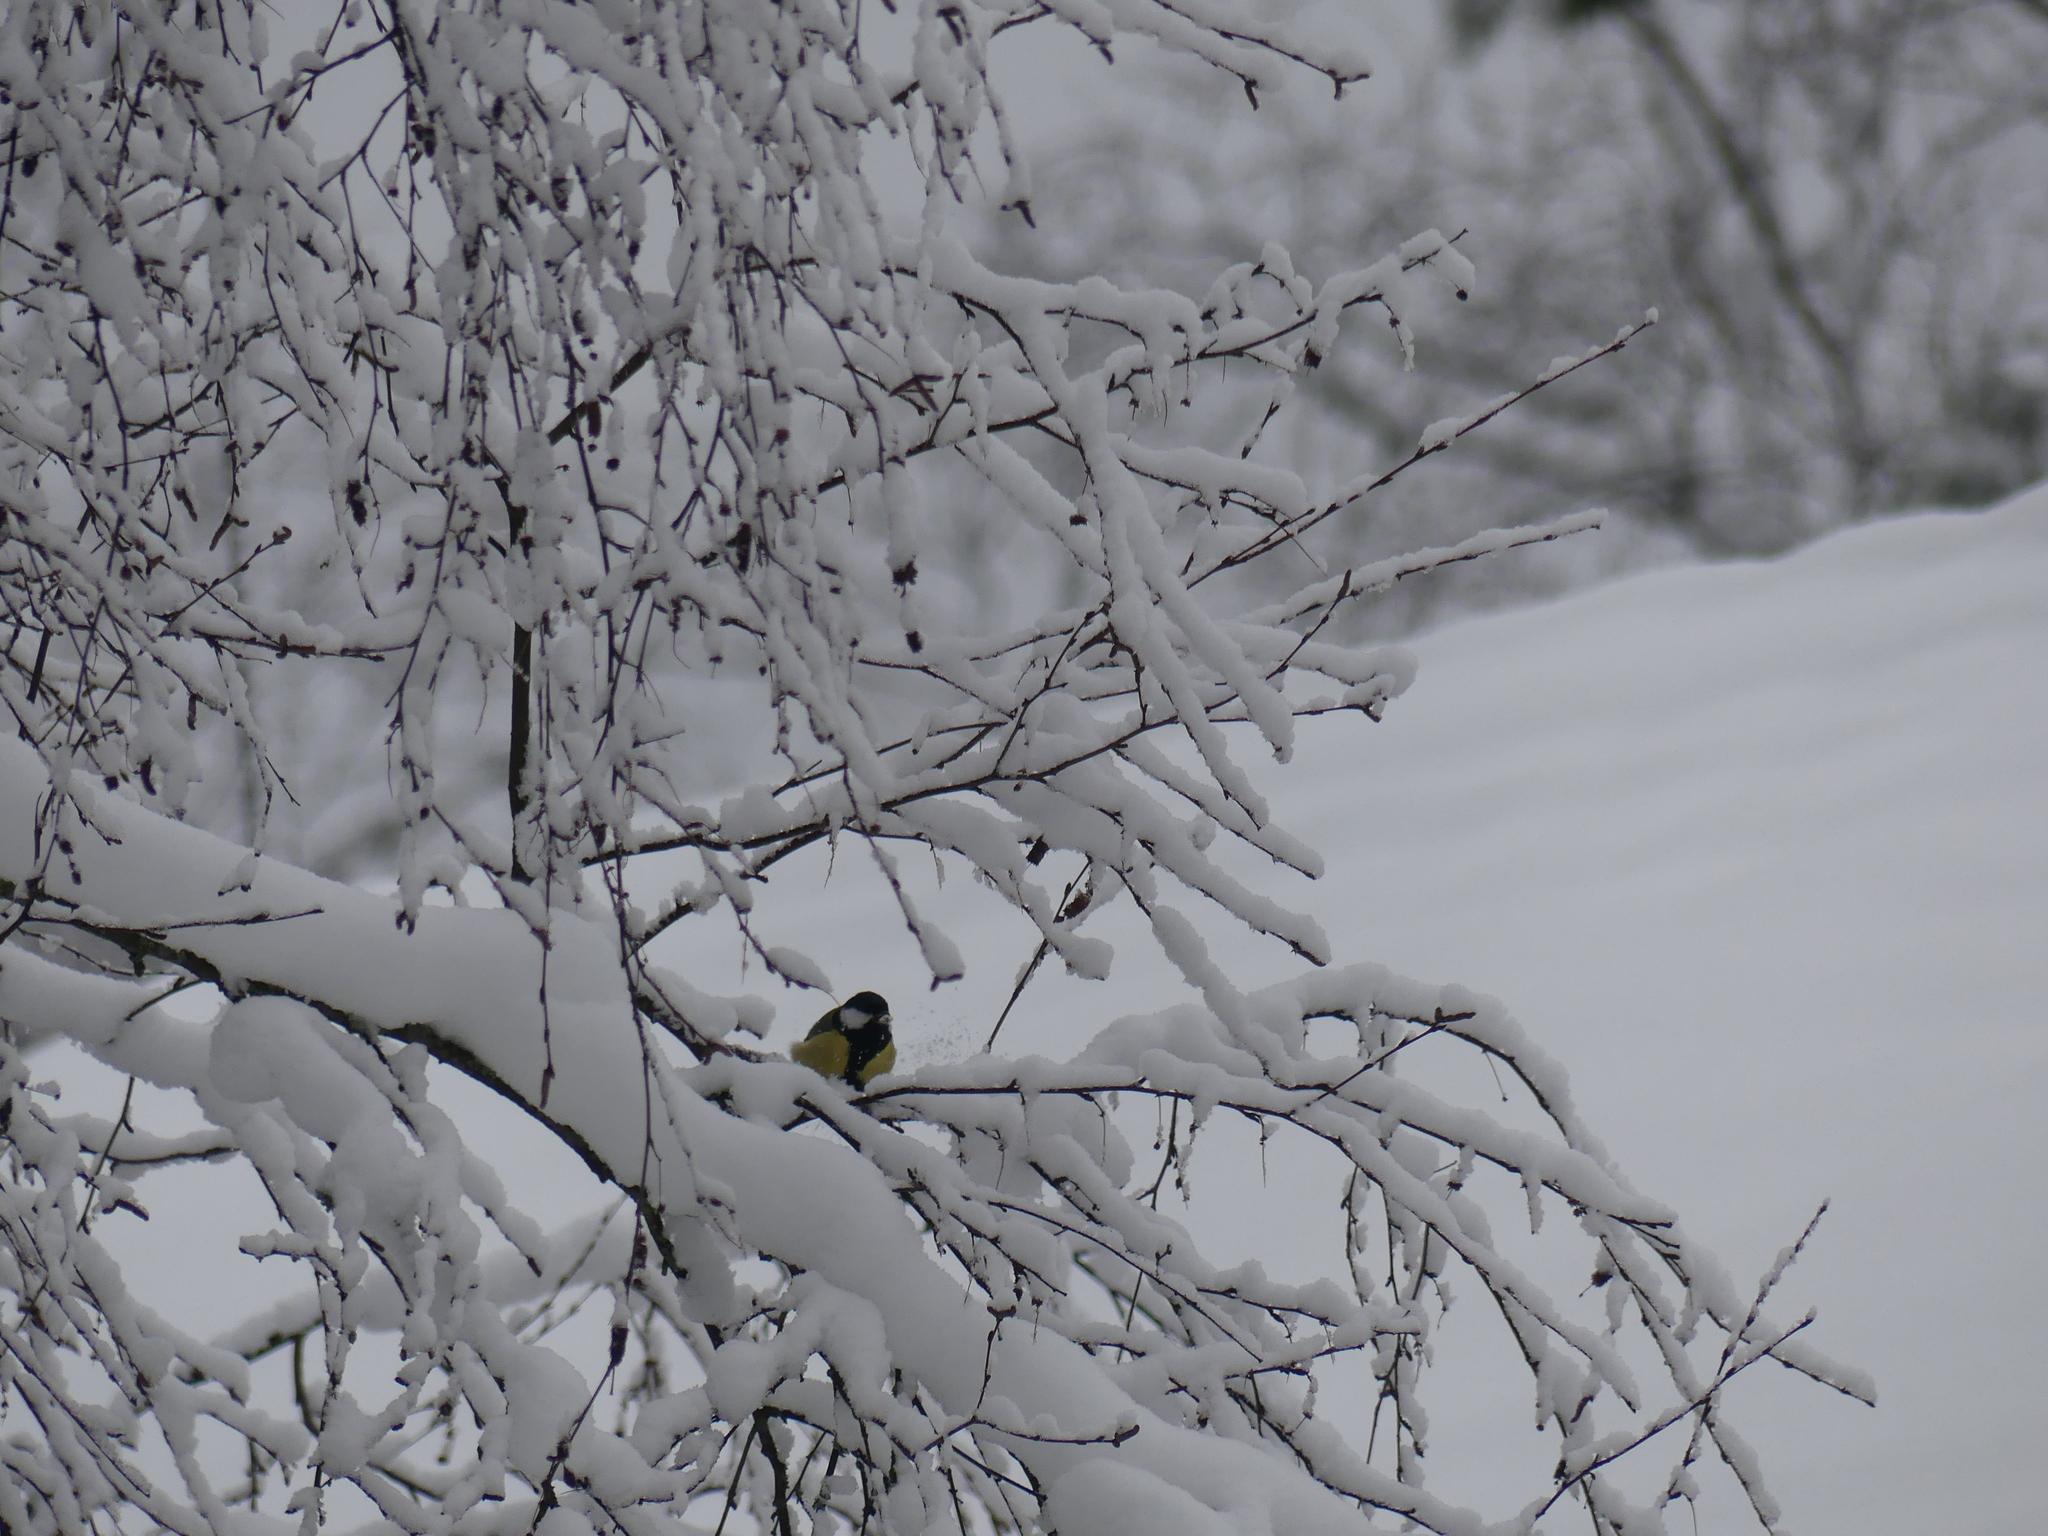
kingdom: Animalia
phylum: Chordata
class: Aves
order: Passeriformes
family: Paridae
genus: Parus
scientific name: Parus major
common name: Great tit
